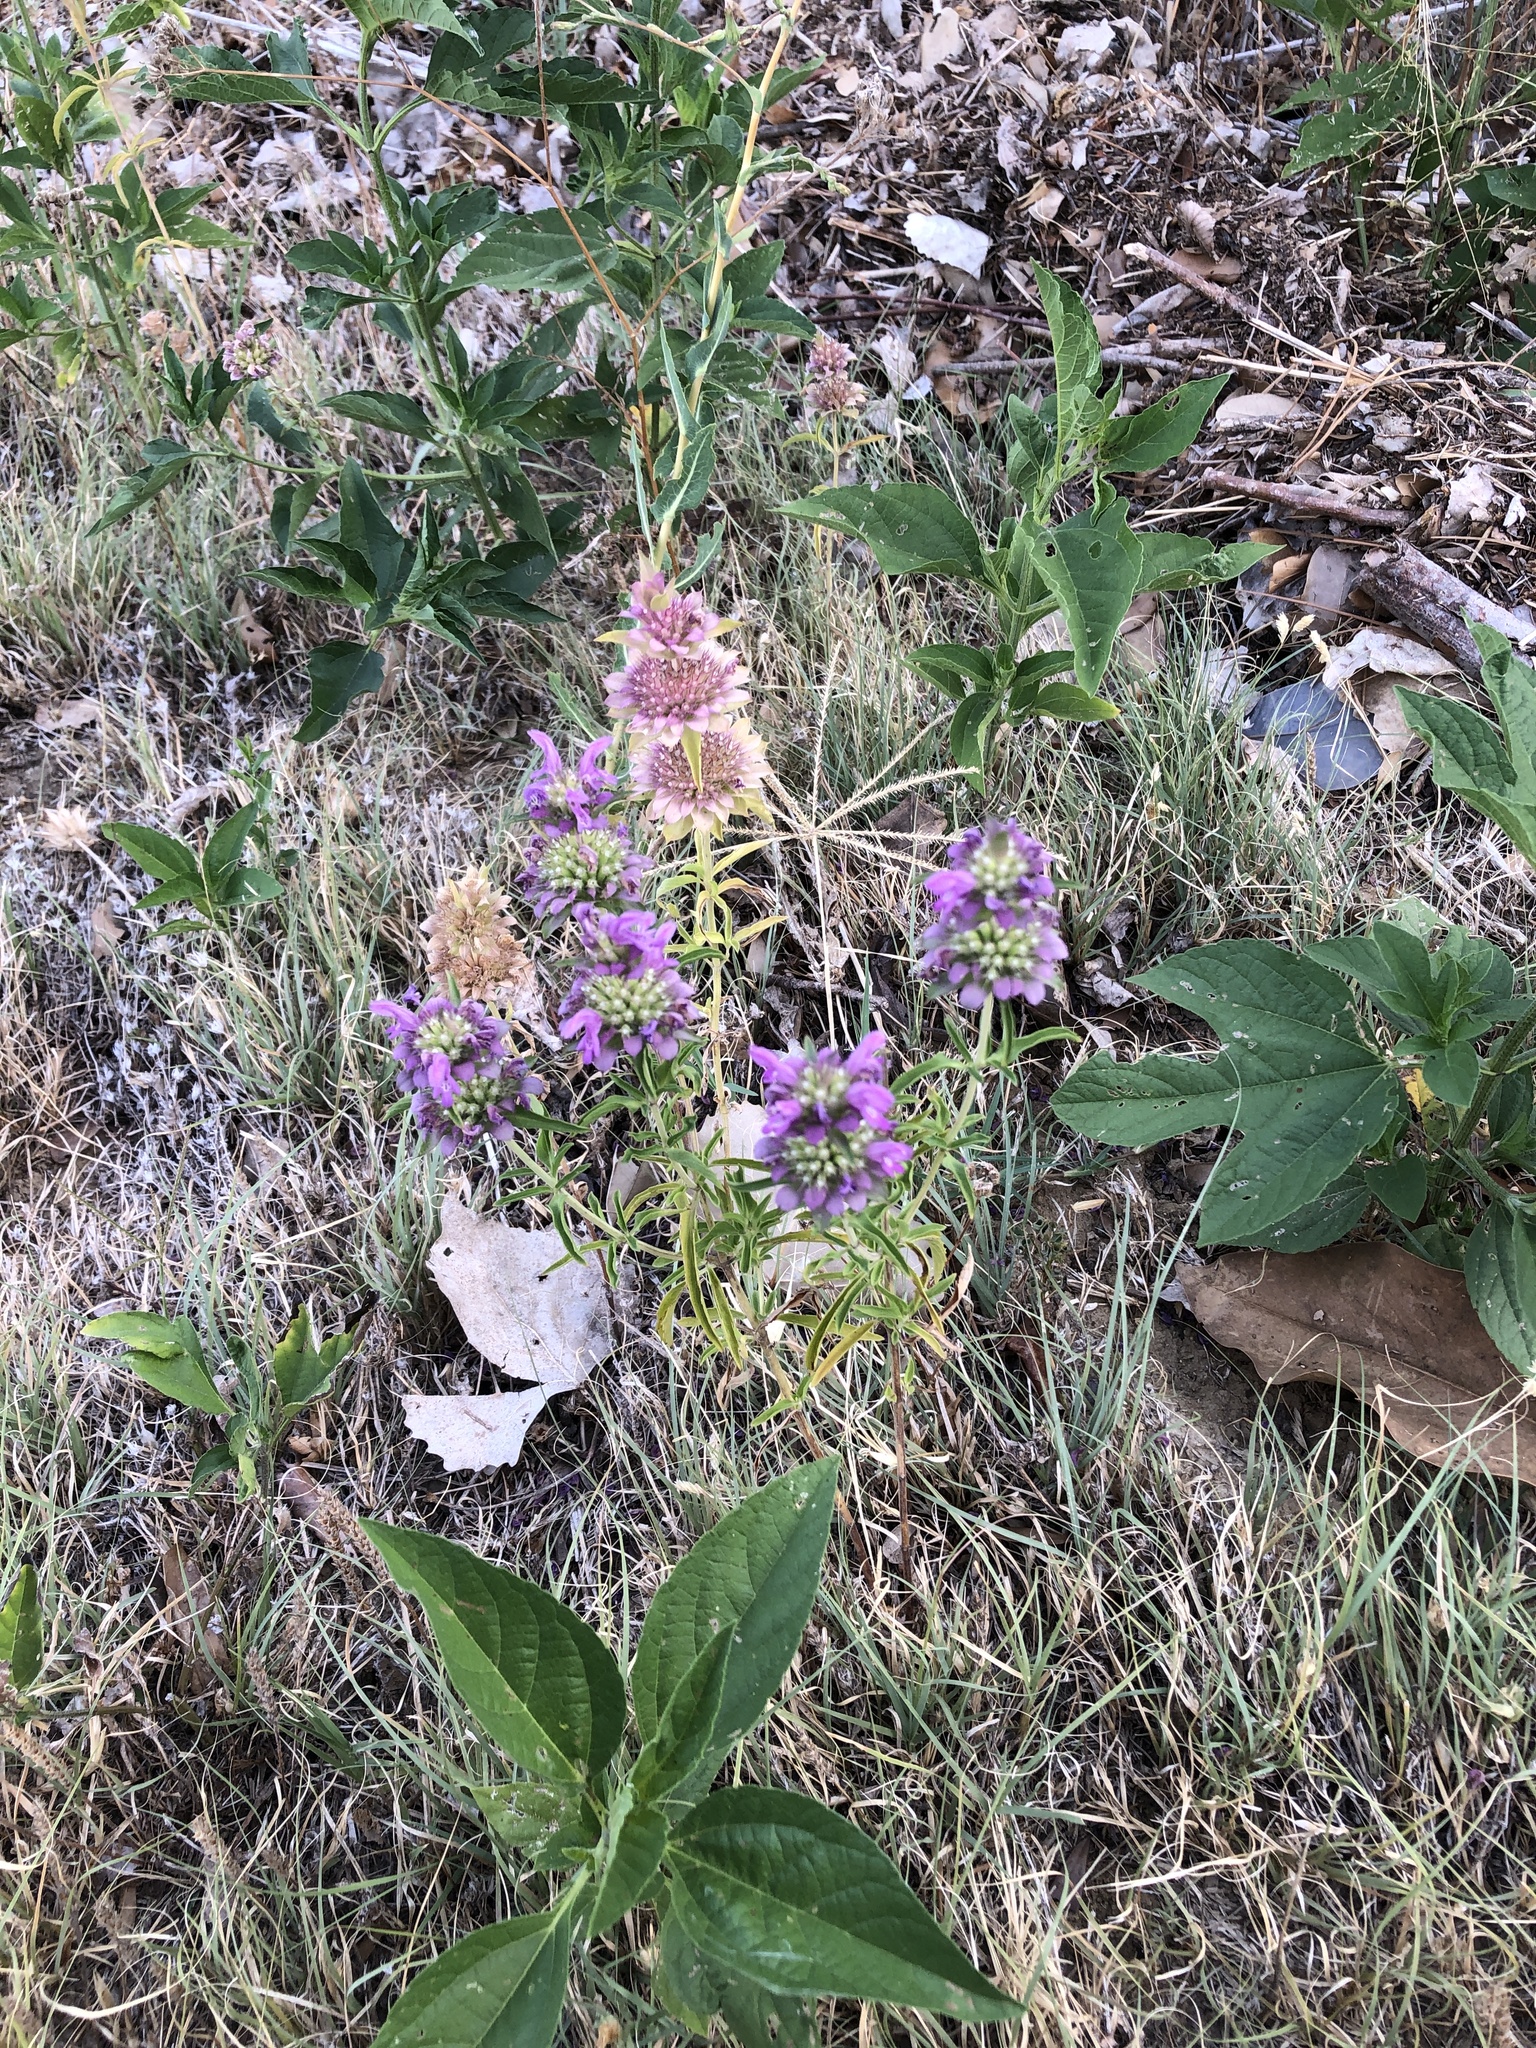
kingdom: Plantae
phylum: Tracheophyta
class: Magnoliopsida
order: Lamiales
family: Lamiaceae
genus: Monarda
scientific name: Monarda citriodora
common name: Lemon beebalm
